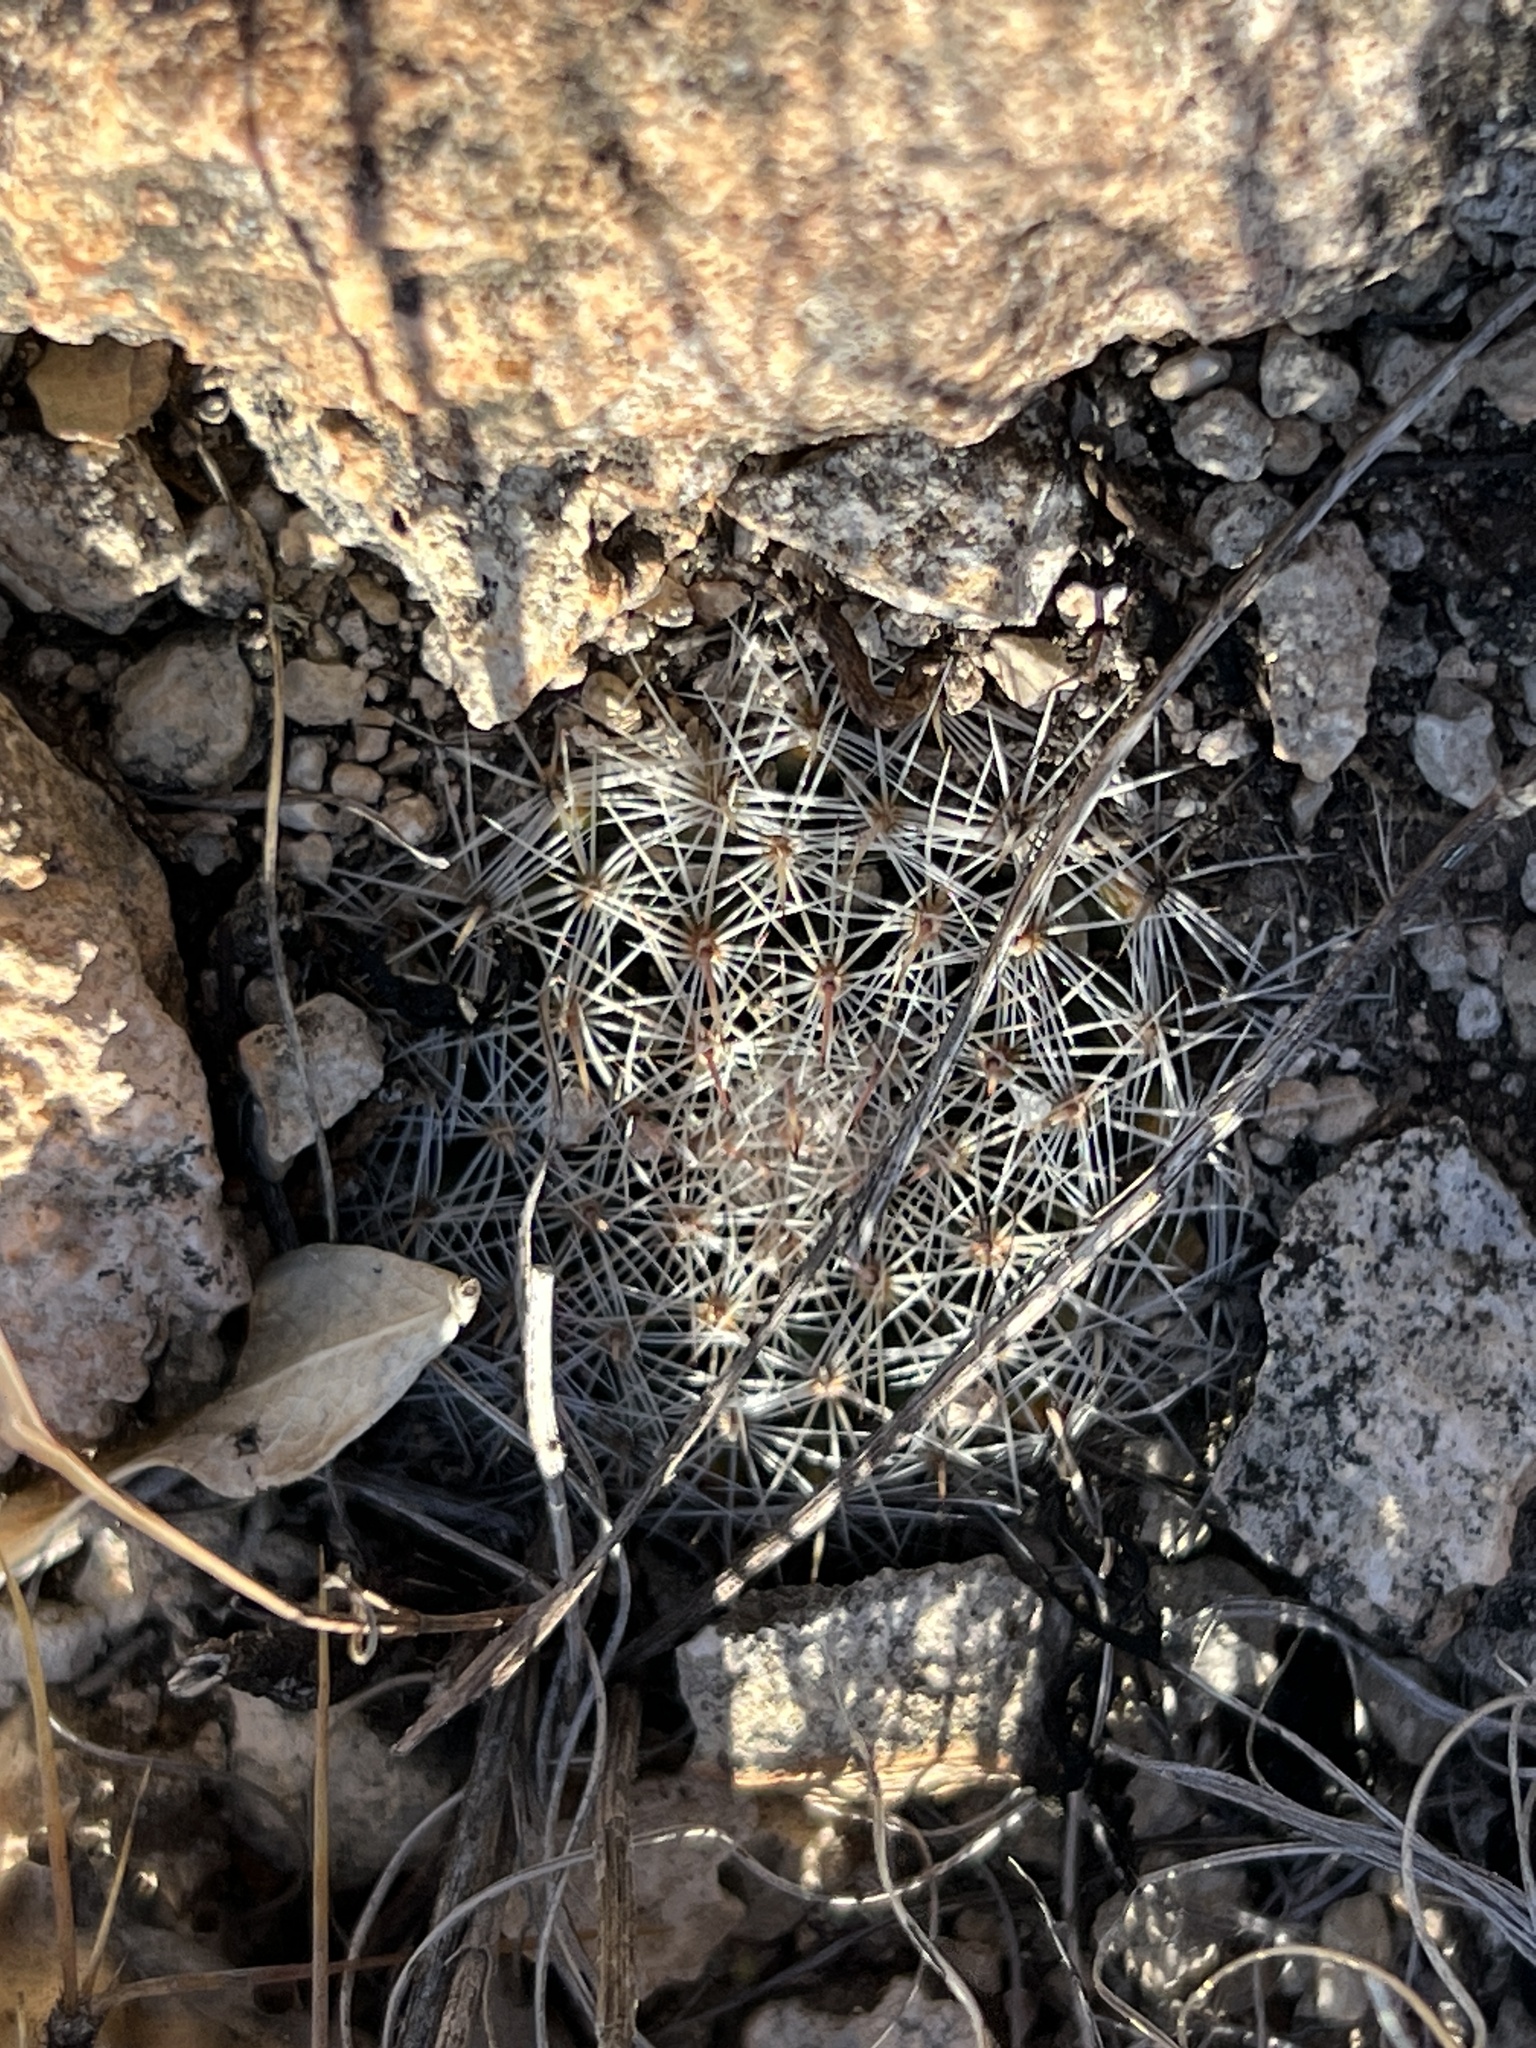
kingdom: Plantae
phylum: Tracheophyta
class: Magnoliopsida
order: Caryophyllales
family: Cactaceae
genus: Mammillaria
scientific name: Mammillaria heyderi
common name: Little nipple cactus
